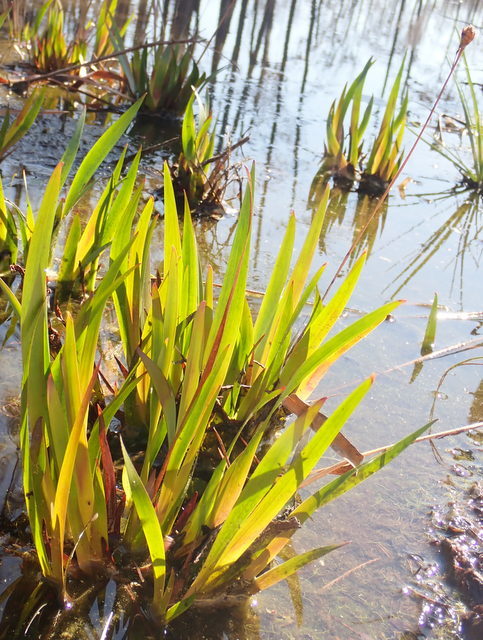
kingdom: Plantae
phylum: Tracheophyta
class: Liliopsida
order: Poales
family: Xyridaceae
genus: Xyris
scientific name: Xyris fimbriata
